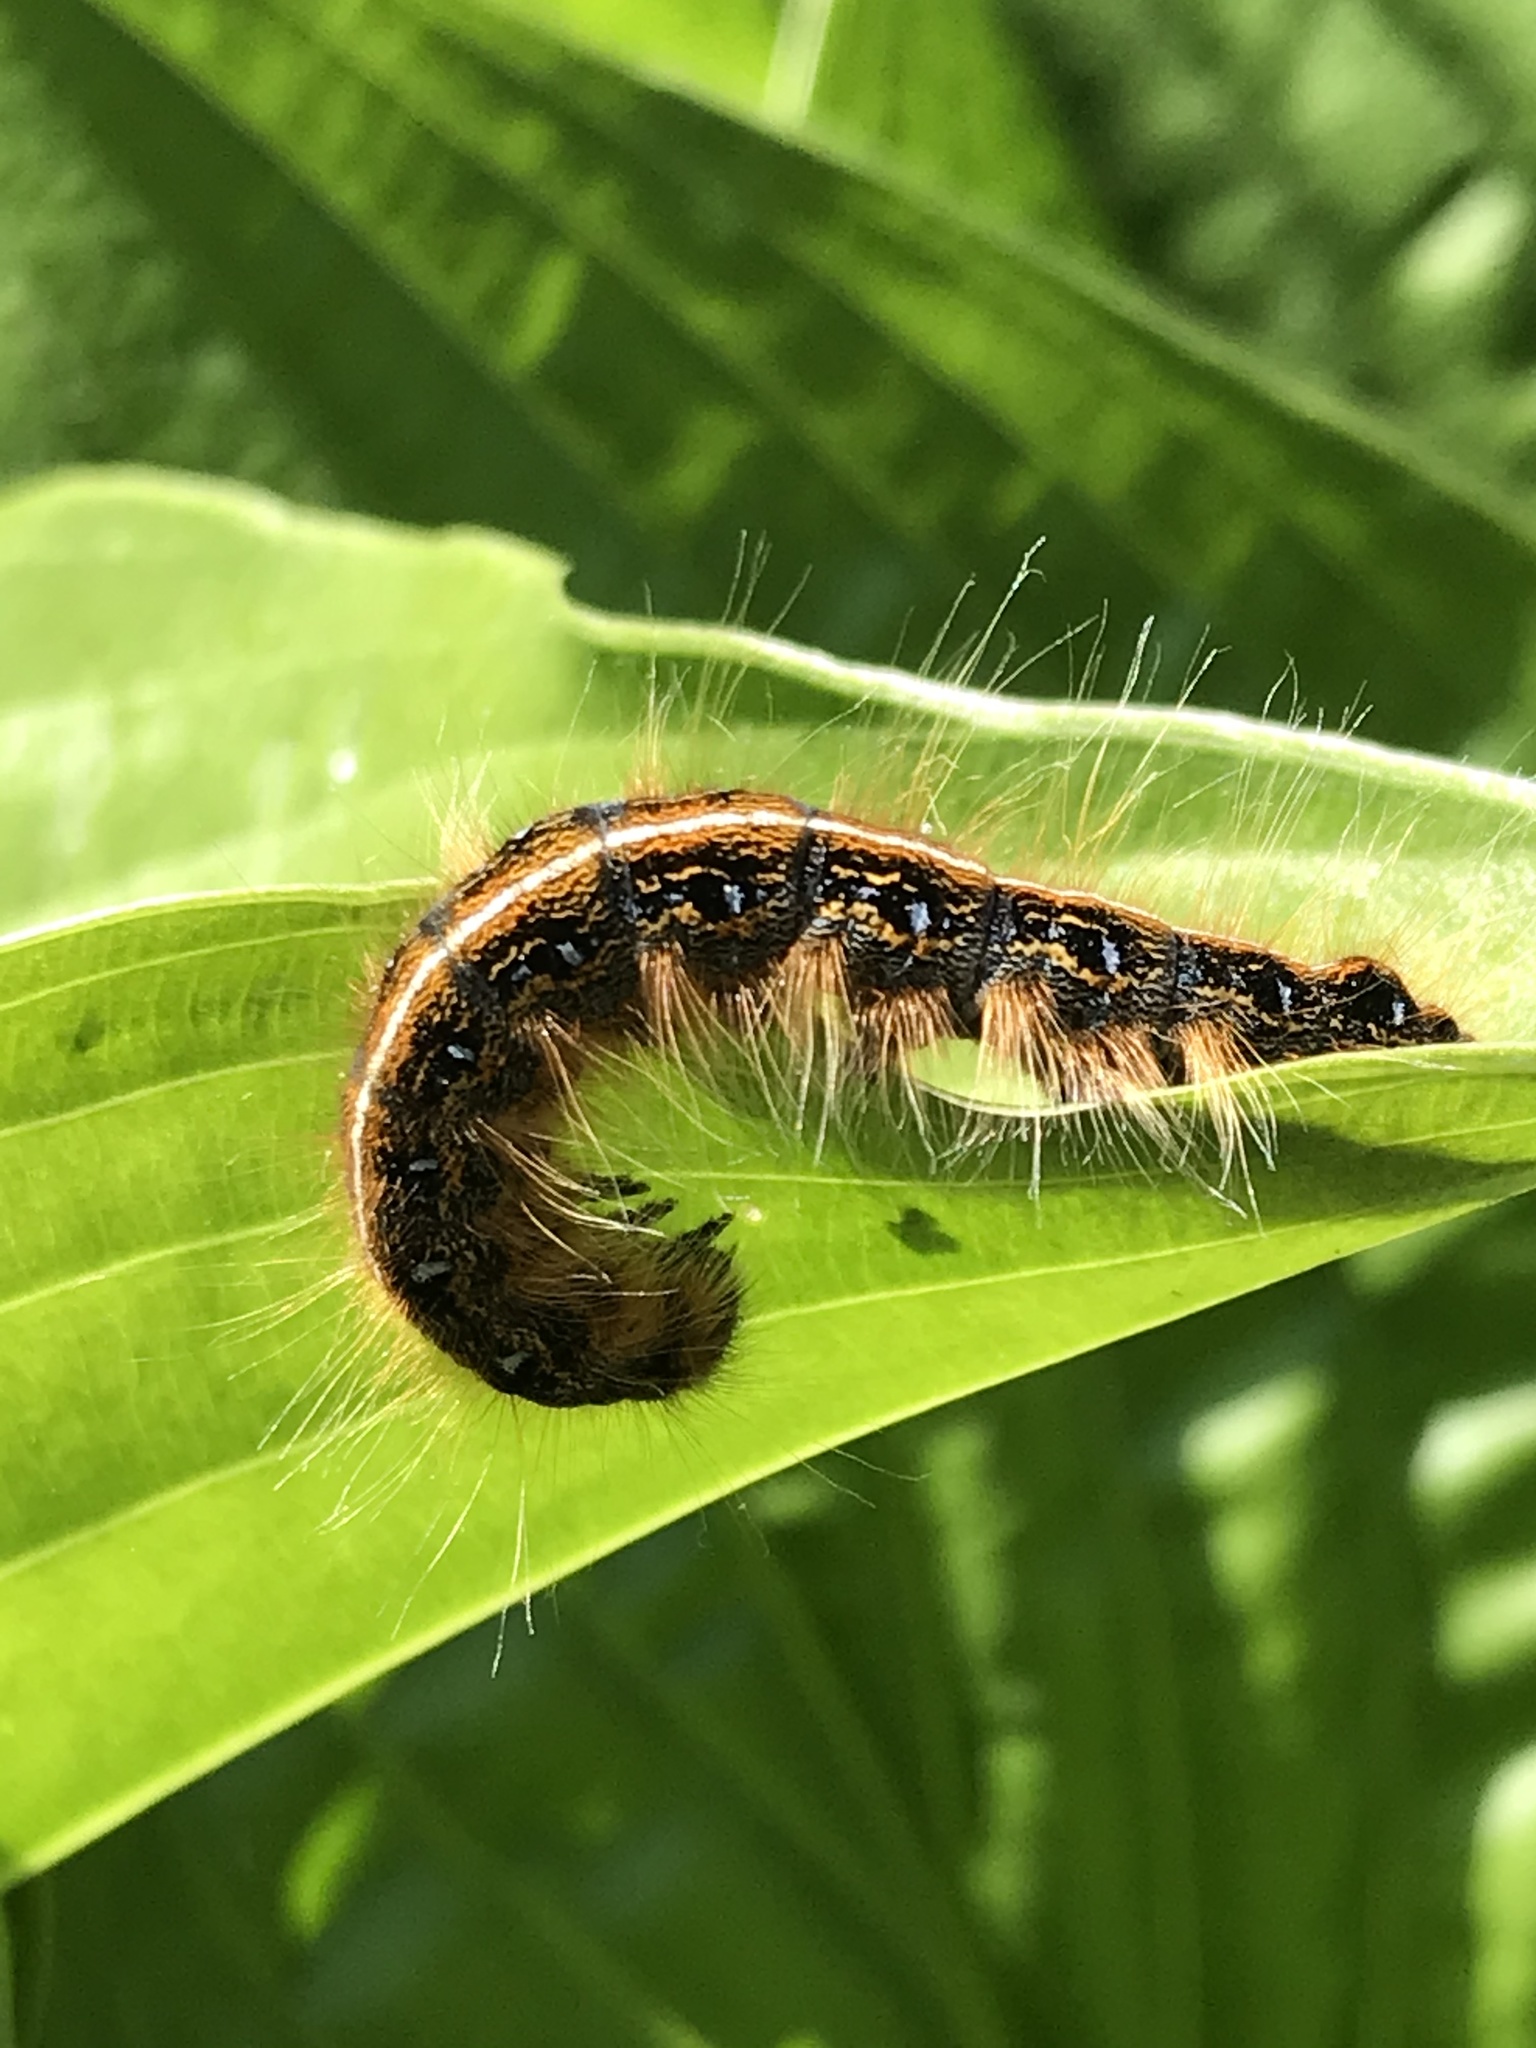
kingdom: Animalia
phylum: Arthropoda
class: Insecta
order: Lepidoptera
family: Lasiocampidae
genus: Malacosoma
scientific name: Malacosoma americana
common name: Eastern tent caterpillar moth
